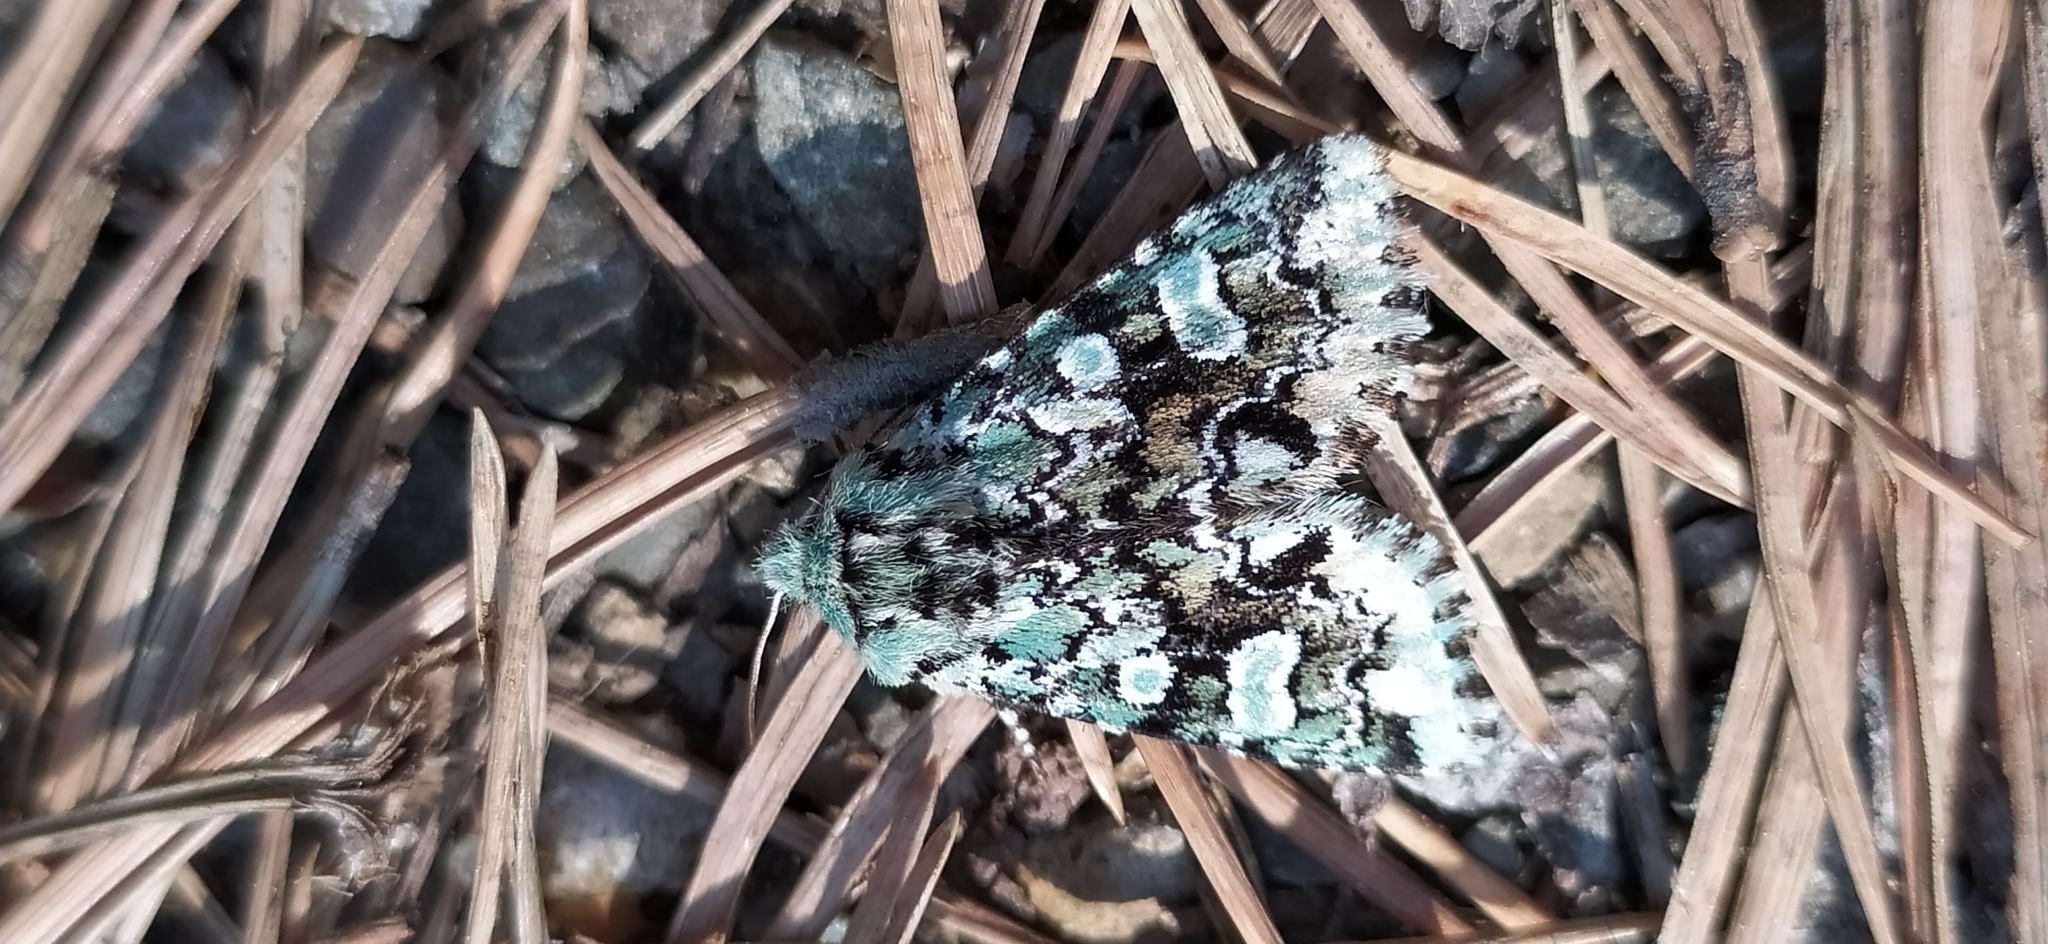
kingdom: Animalia
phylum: Arthropoda
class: Insecta
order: Lepidoptera
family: Noctuidae
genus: Feralia
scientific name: Feralia sauberi
